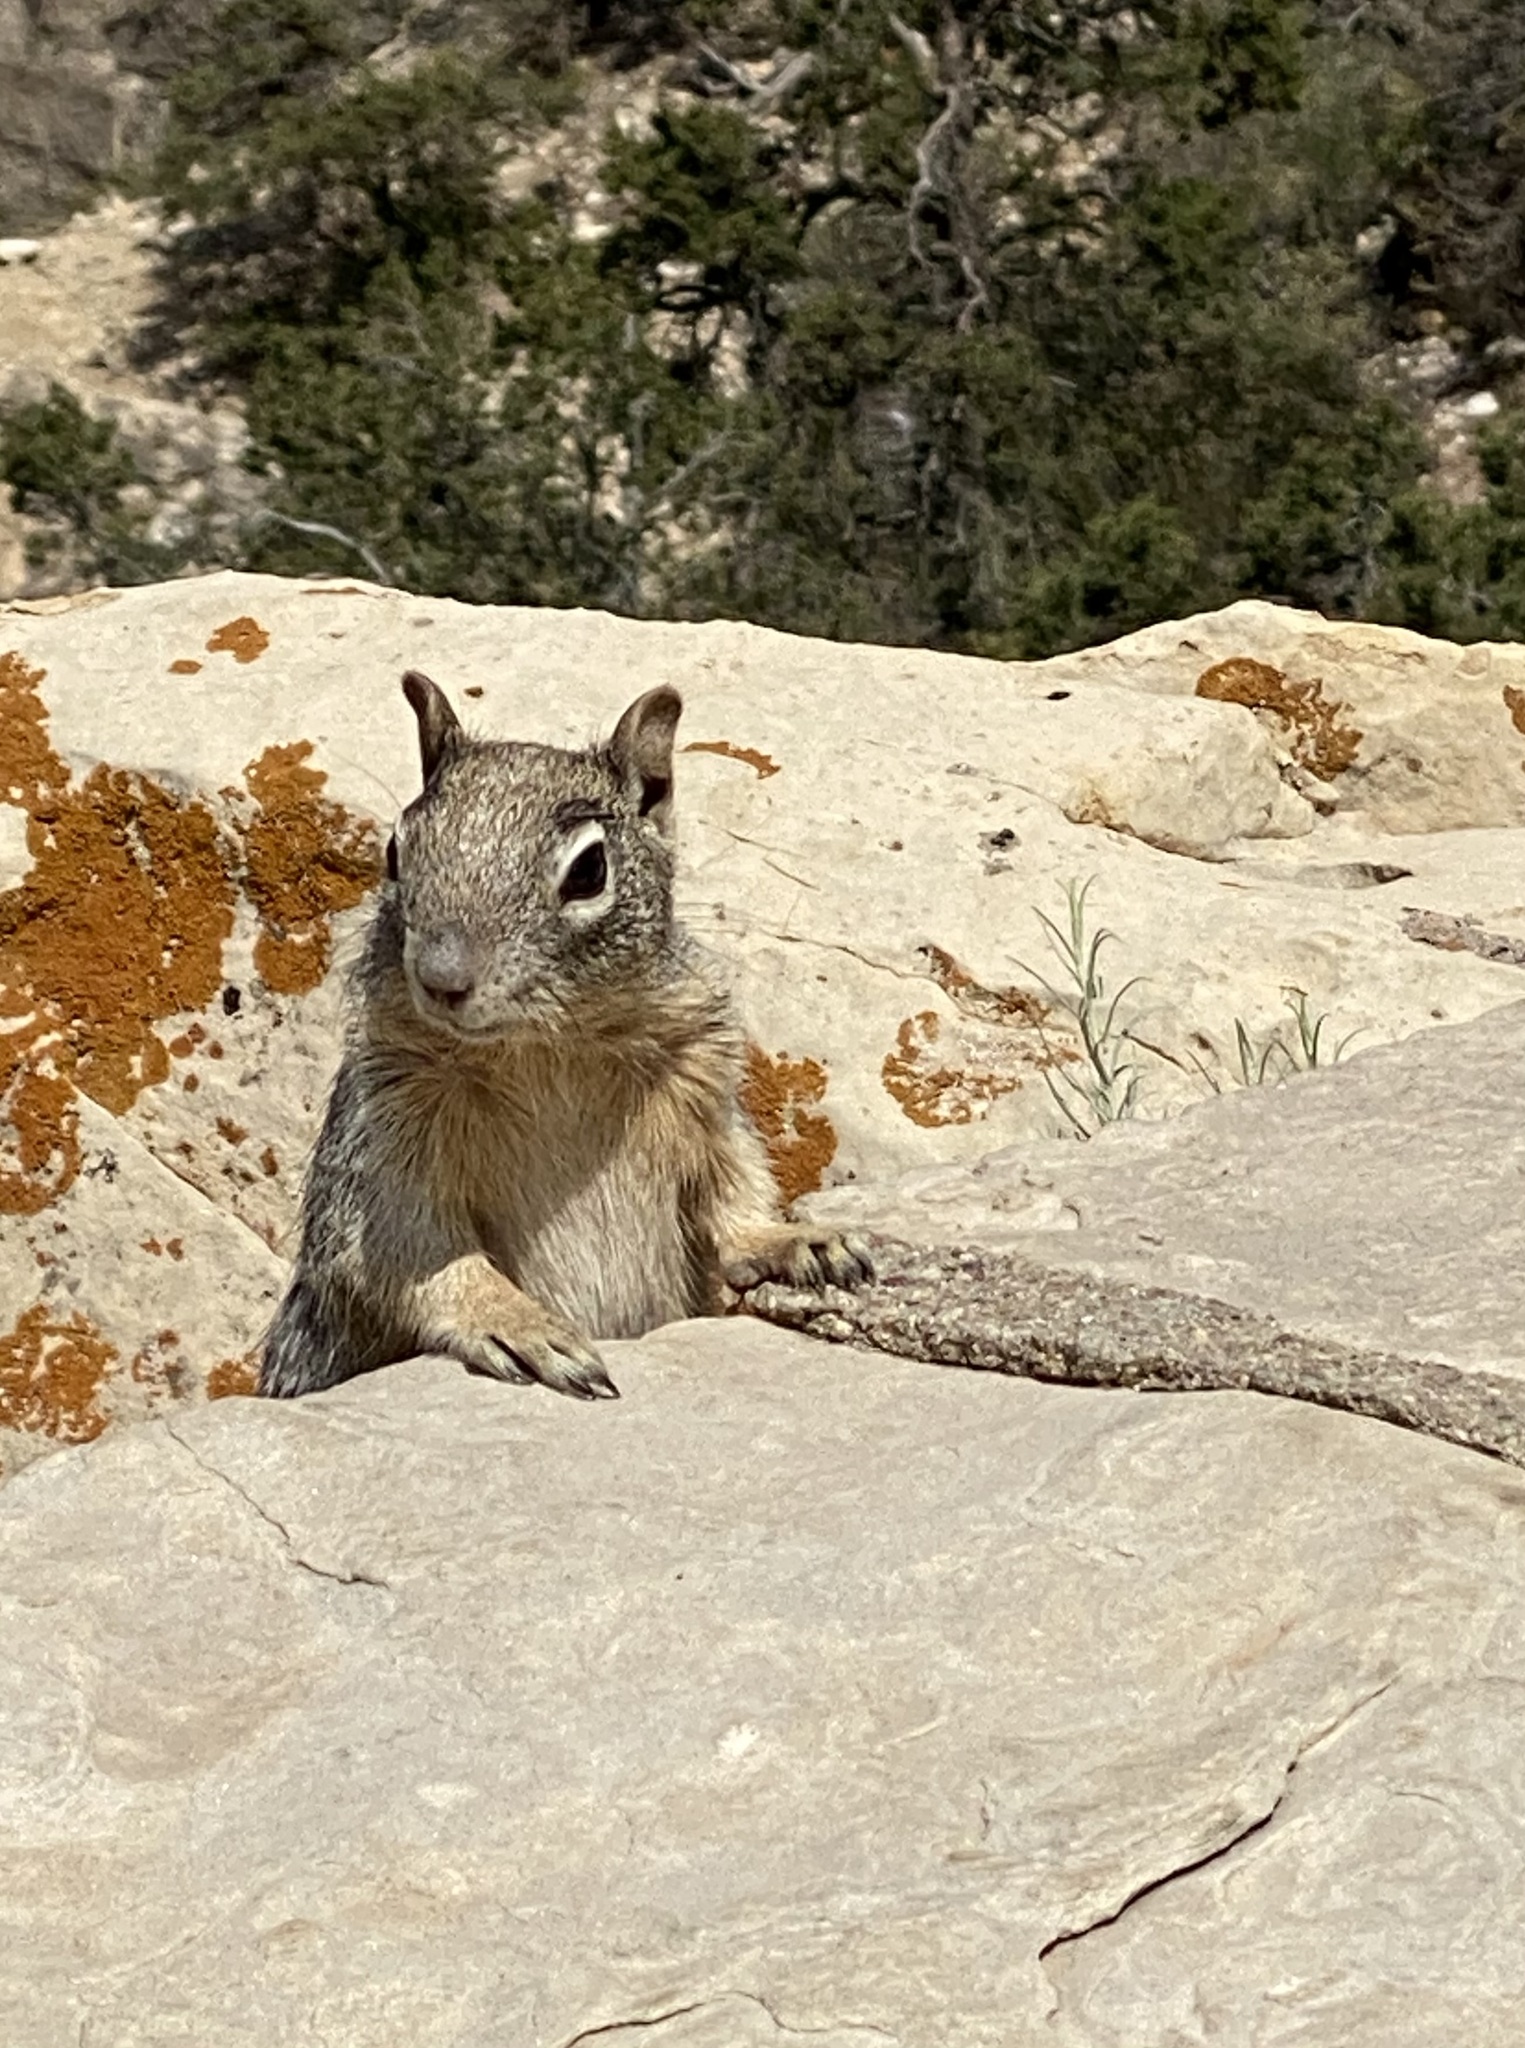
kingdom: Animalia
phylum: Chordata
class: Mammalia
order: Rodentia
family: Sciuridae
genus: Otospermophilus
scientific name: Otospermophilus variegatus
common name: Rock squirrel
